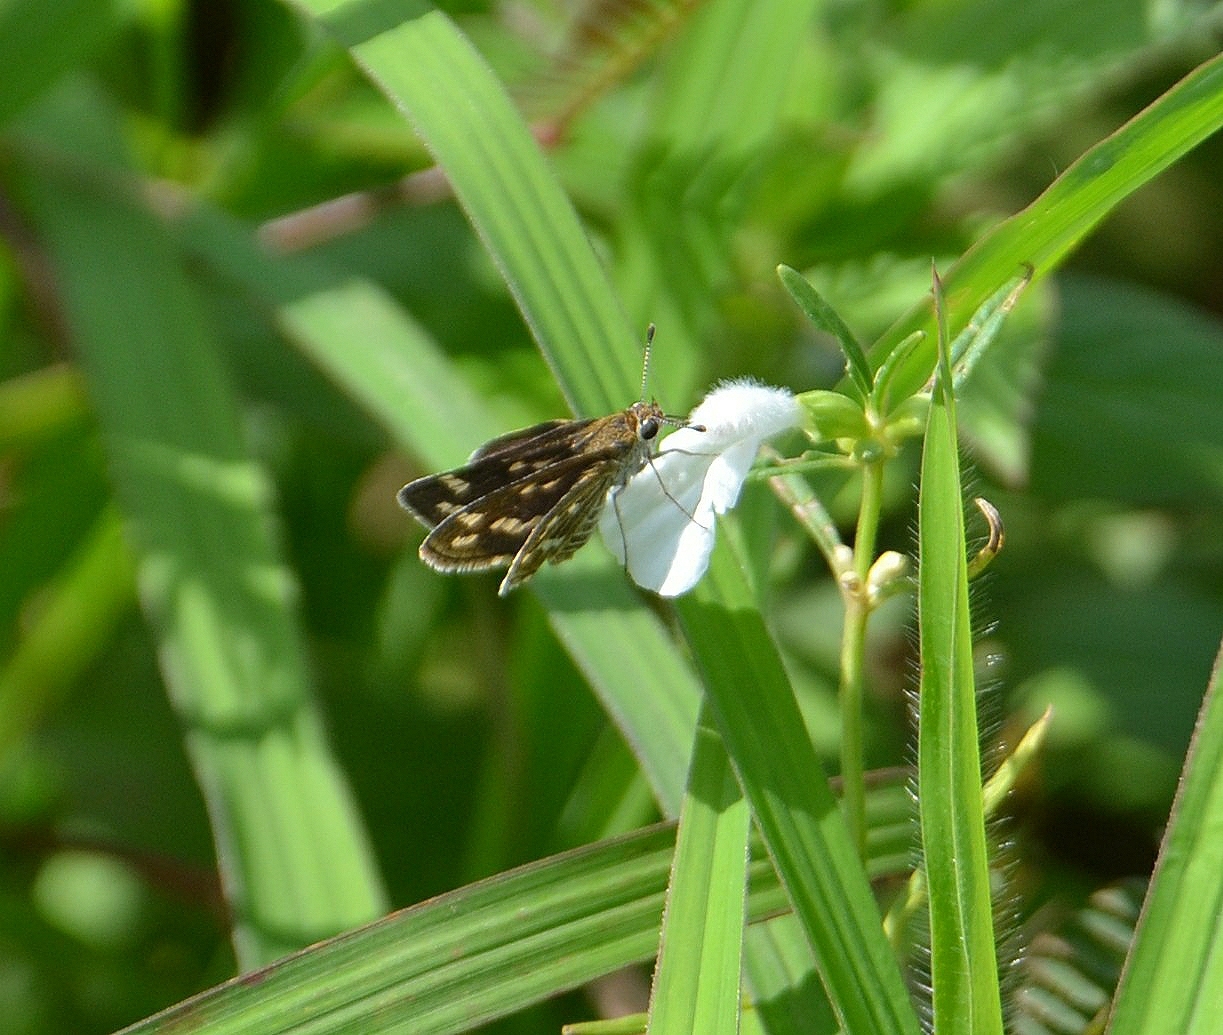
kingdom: Animalia
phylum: Arthropoda
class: Insecta
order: Lepidoptera
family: Hesperiidae
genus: Taractrocera
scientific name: Taractrocera maevius
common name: Common grass-dart
